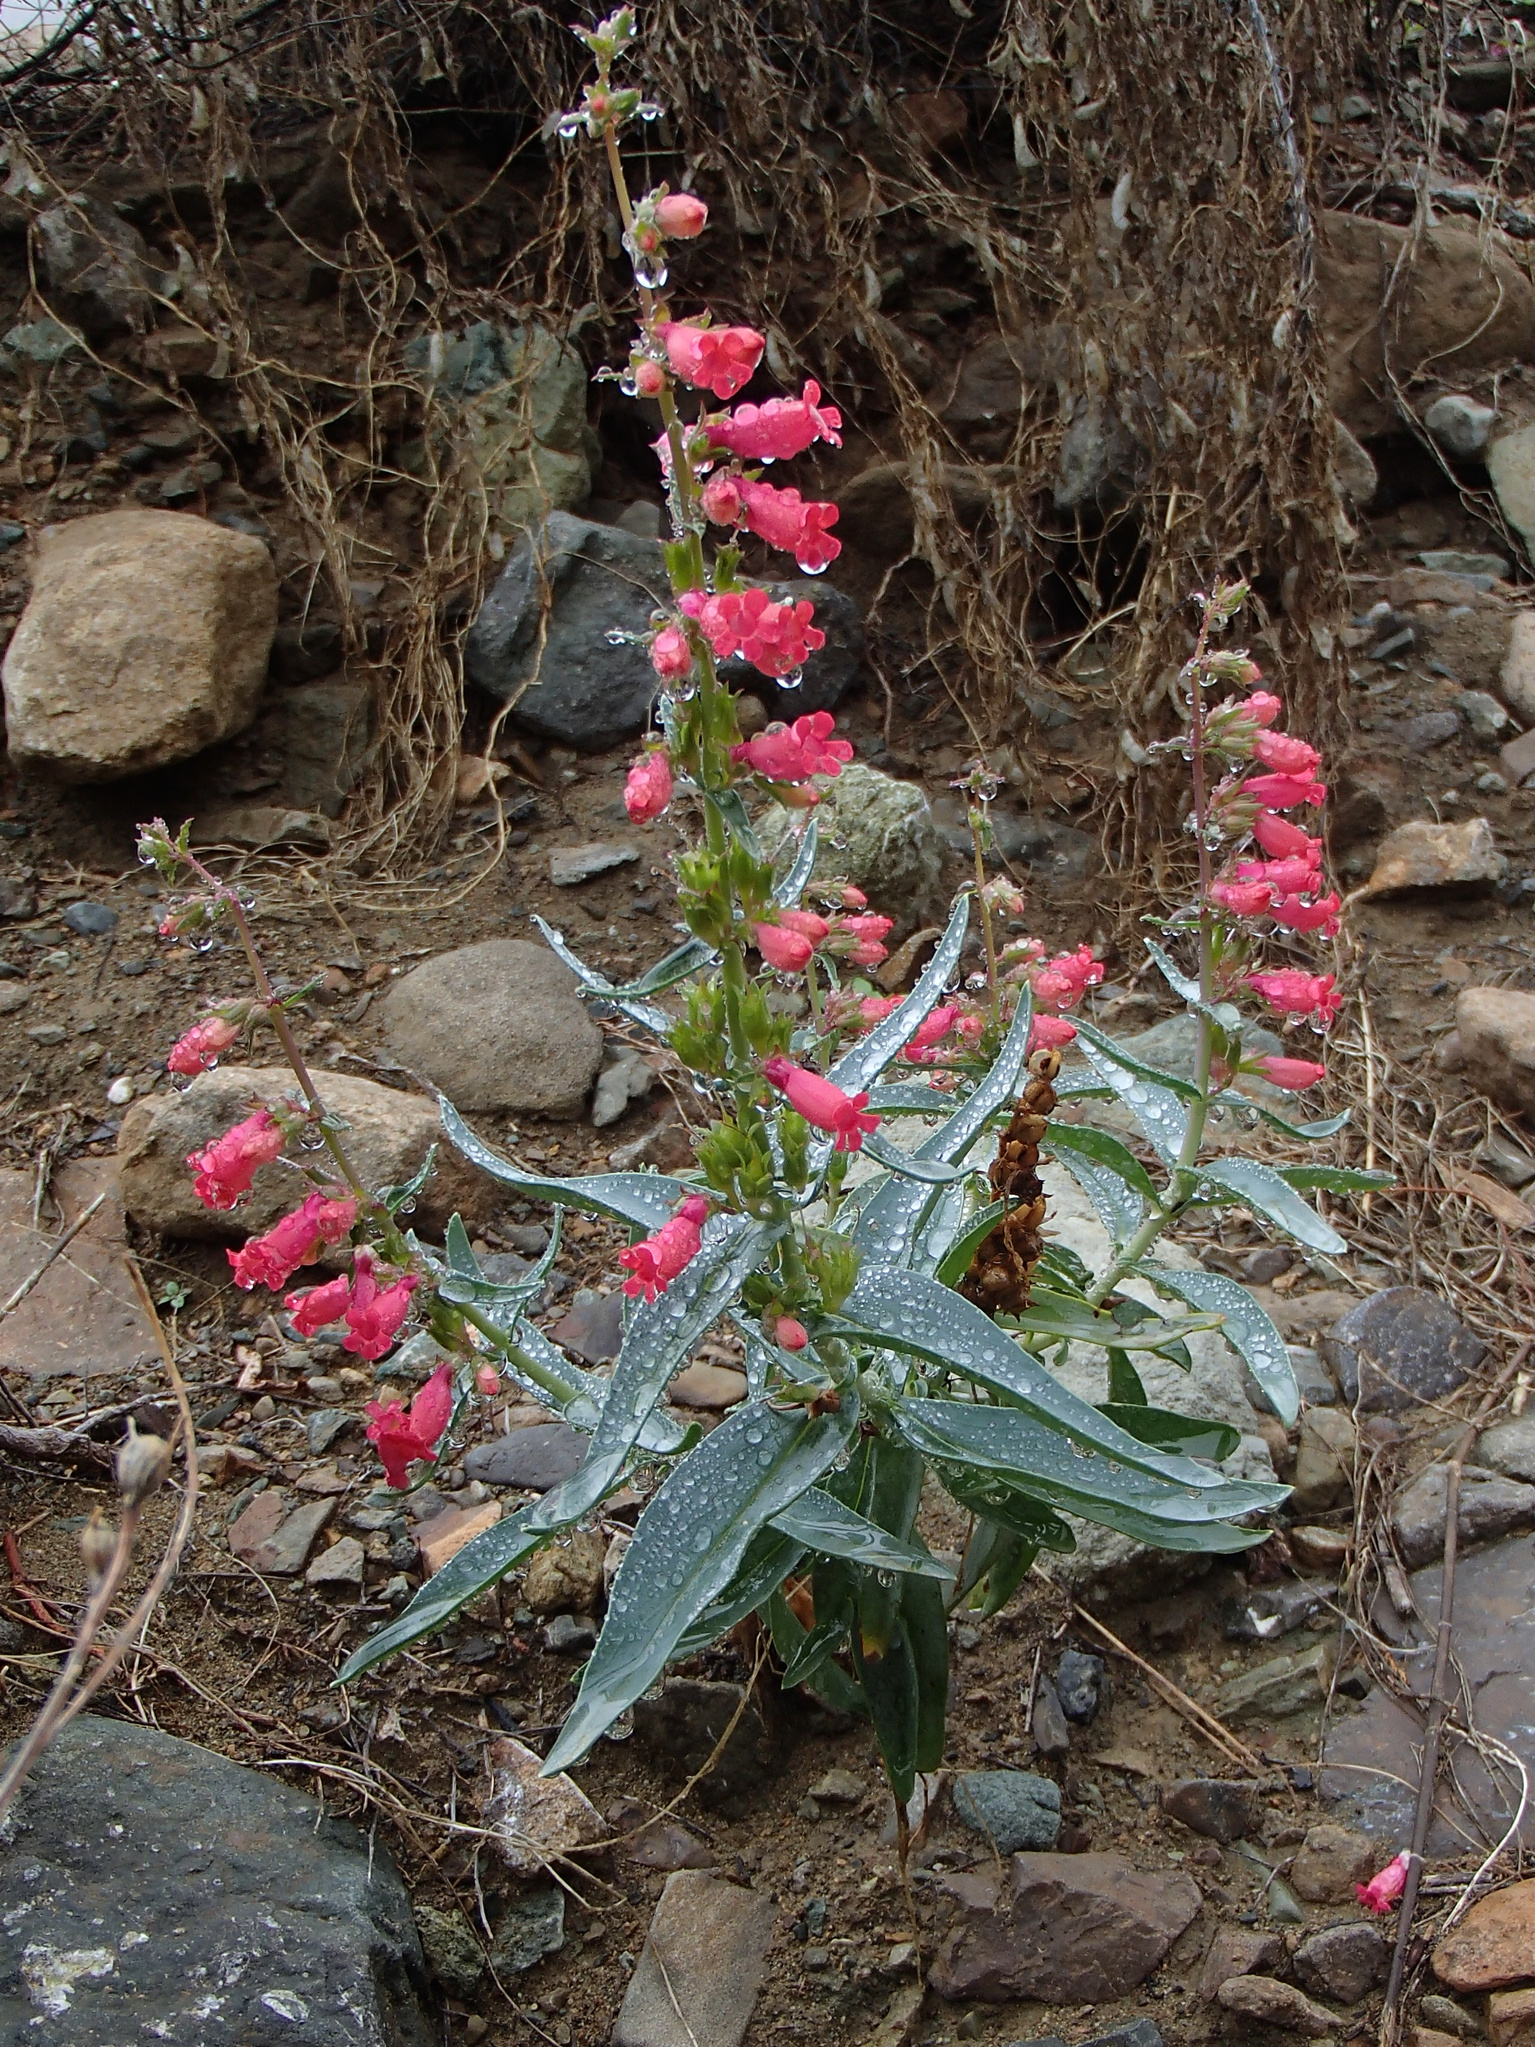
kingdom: Plantae
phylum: Tracheophyta
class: Magnoliopsida
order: Lamiales
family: Plantaginaceae
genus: Penstemon
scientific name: Penstemon cedrosensis
